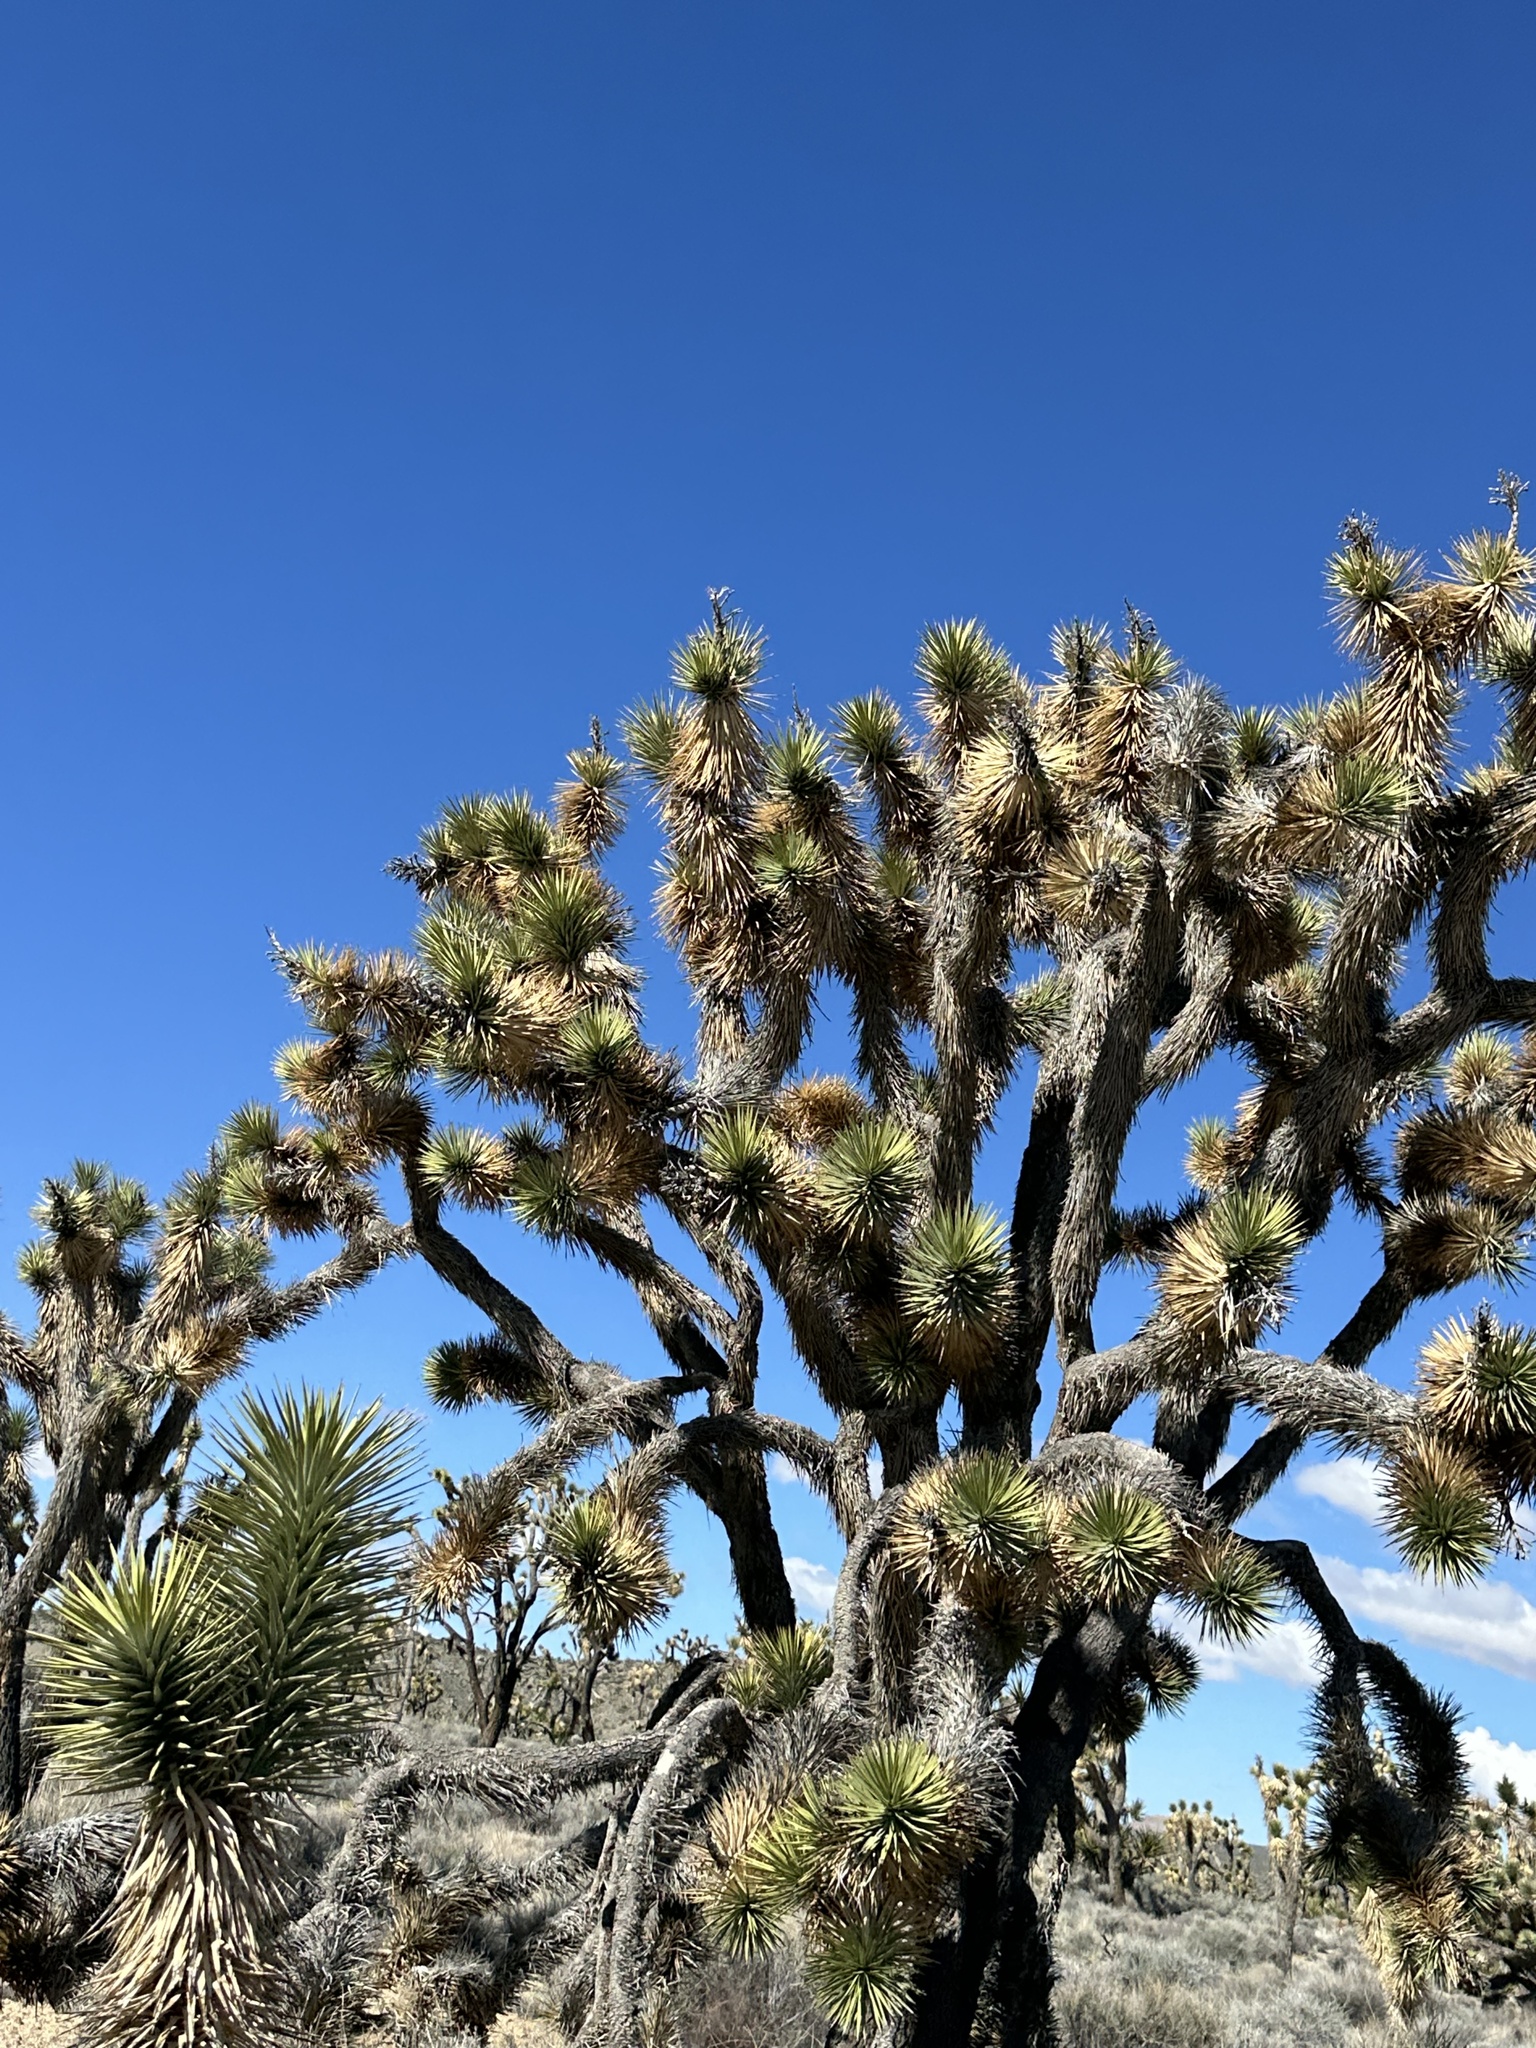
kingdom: Plantae
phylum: Tracheophyta
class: Liliopsida
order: Asparagales
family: Asparagaceae
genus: Yucca
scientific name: Yucca brevifolia
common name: Joshua tree
